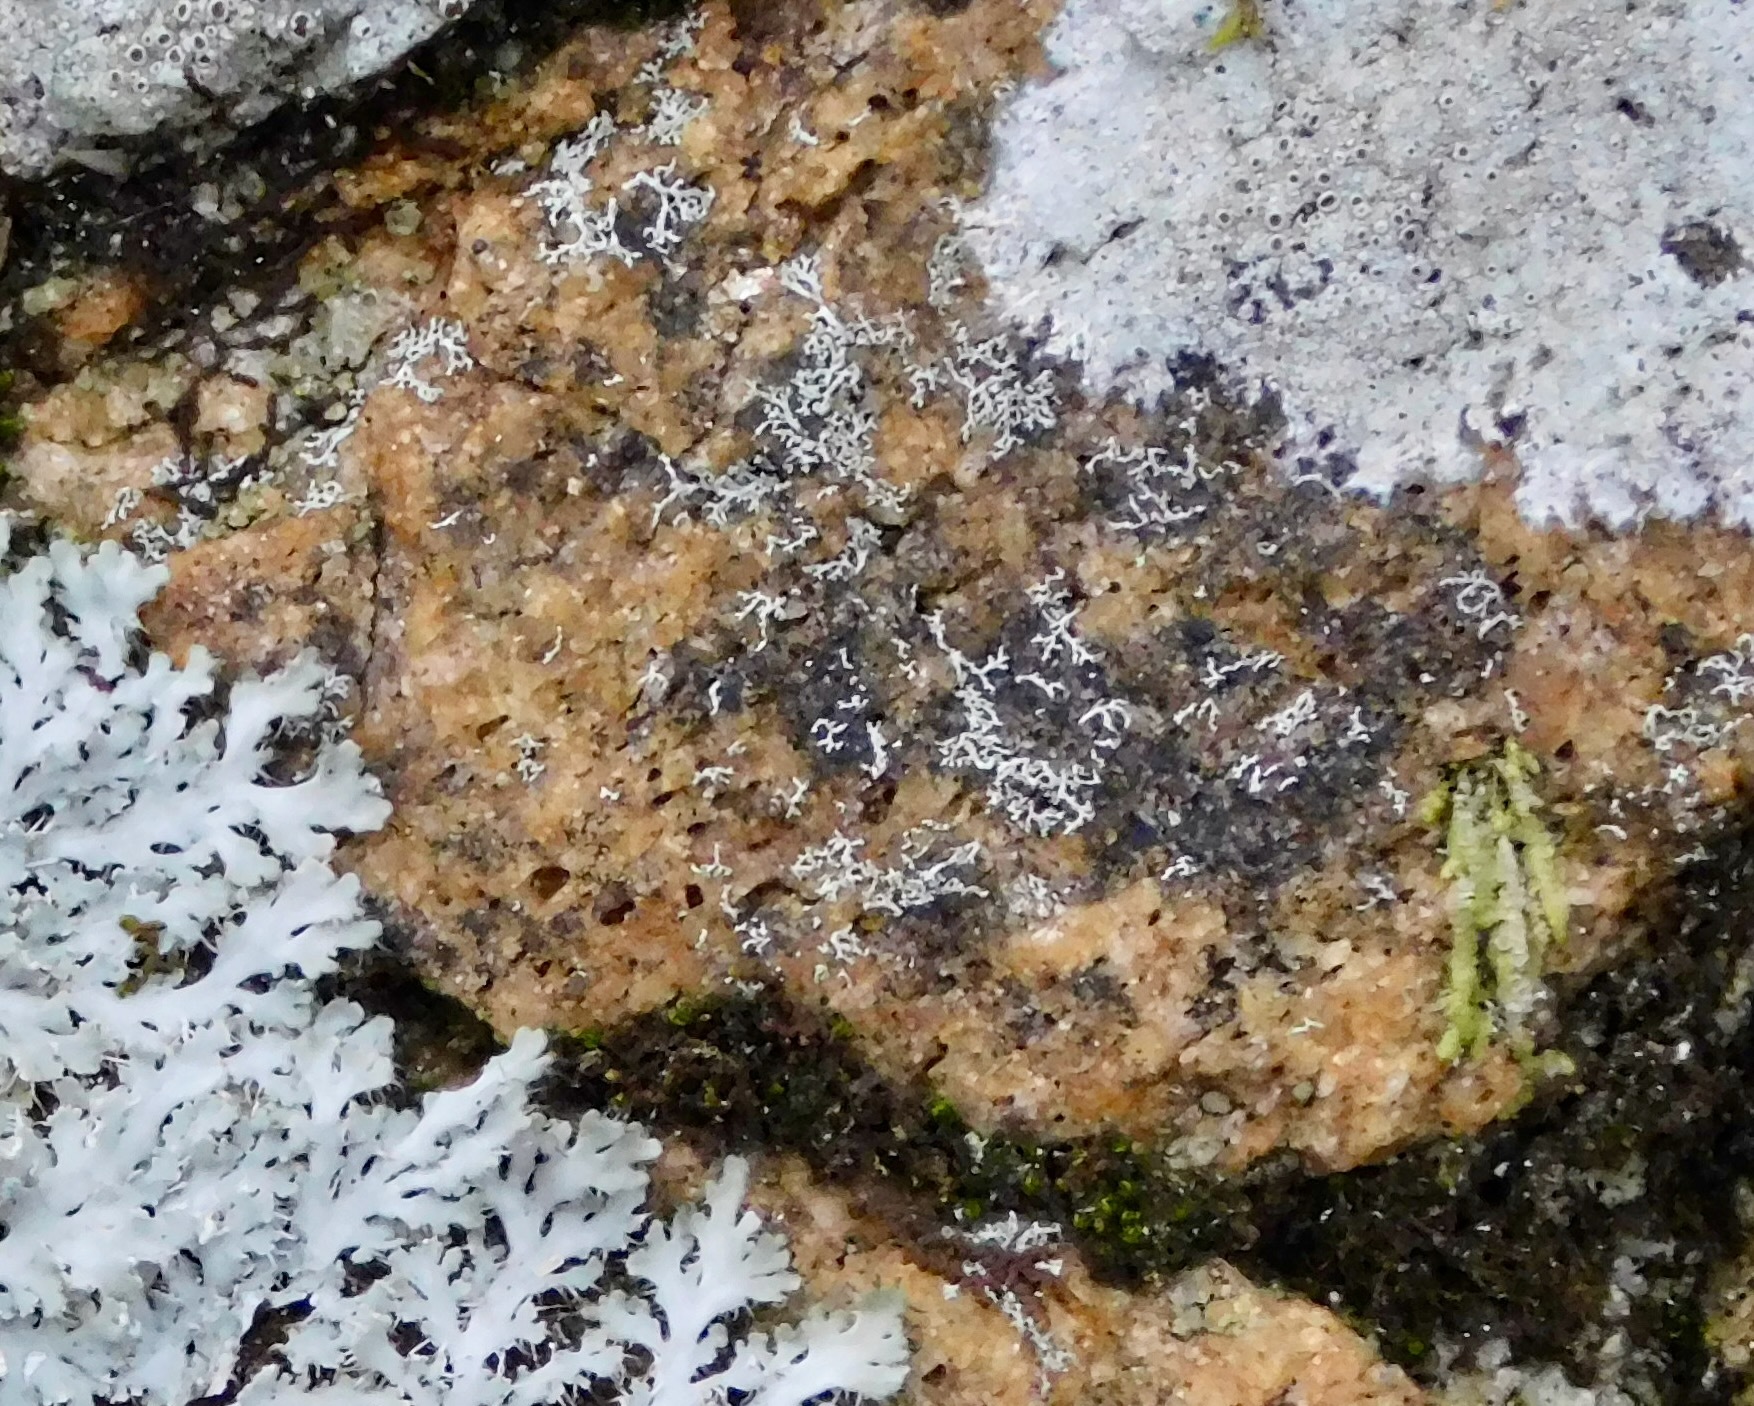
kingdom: Fungi
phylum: Ascomycota
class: Lecanoromycetes
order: Caliciales
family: Physciaceae
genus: Physcia
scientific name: Physcia subtilis
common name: Slender rosette lichen
